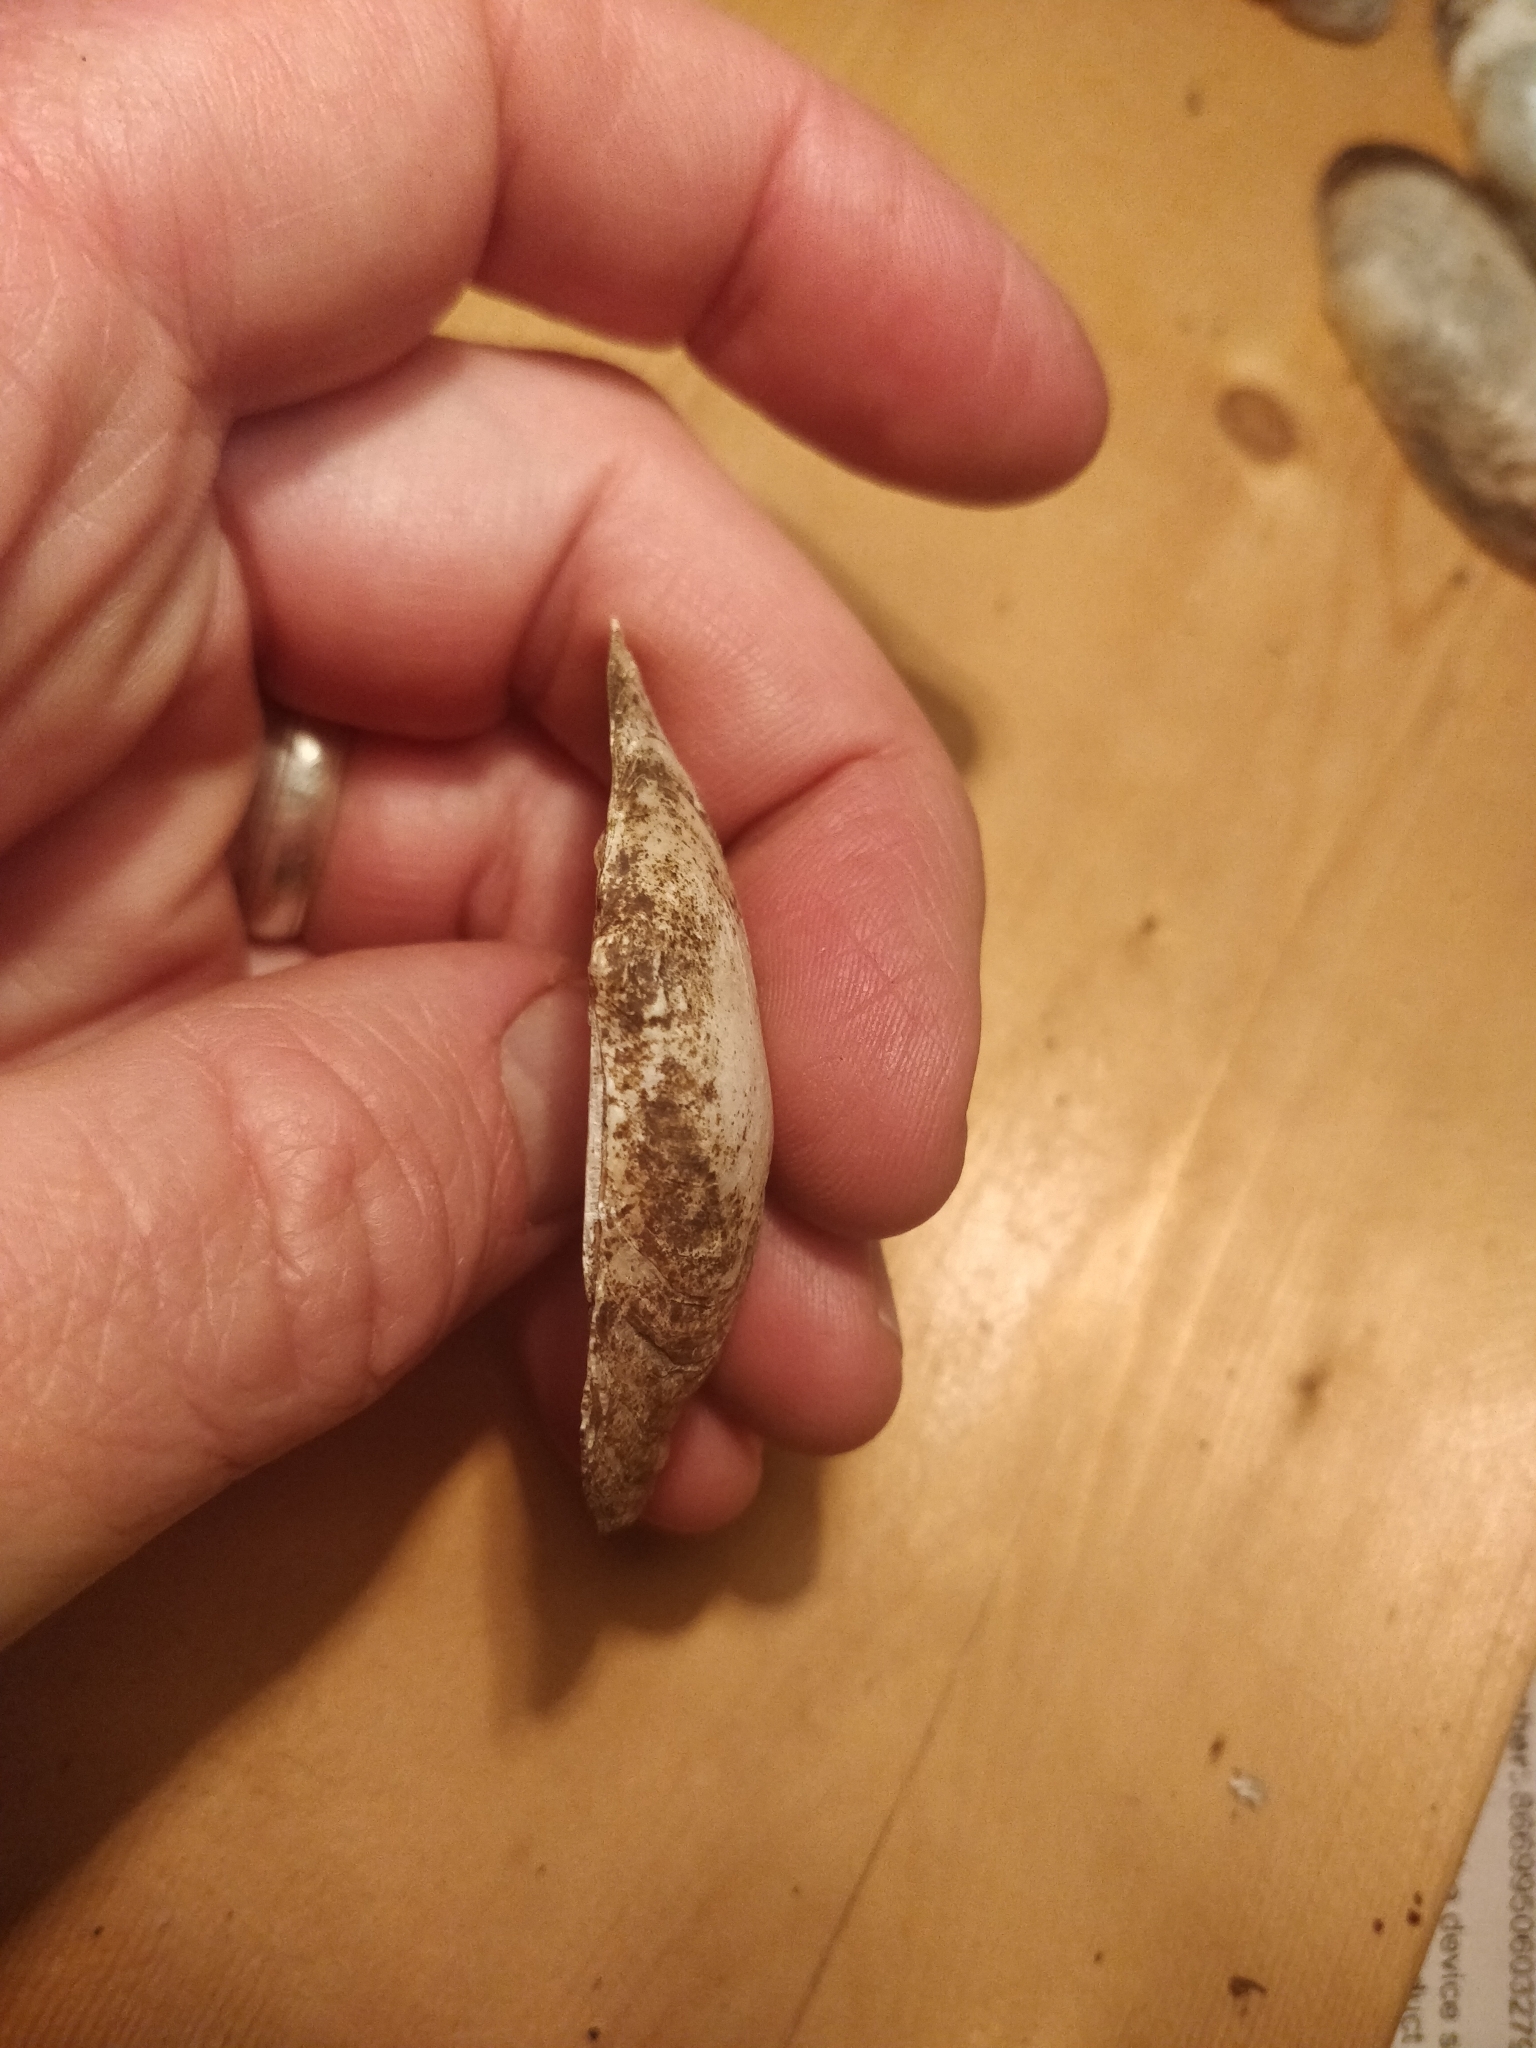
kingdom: Animalia
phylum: Mollusca
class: Bivalvia
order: Unionida
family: Unionidae
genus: Strophitus
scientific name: Strophitus undulatus
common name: Creeper
